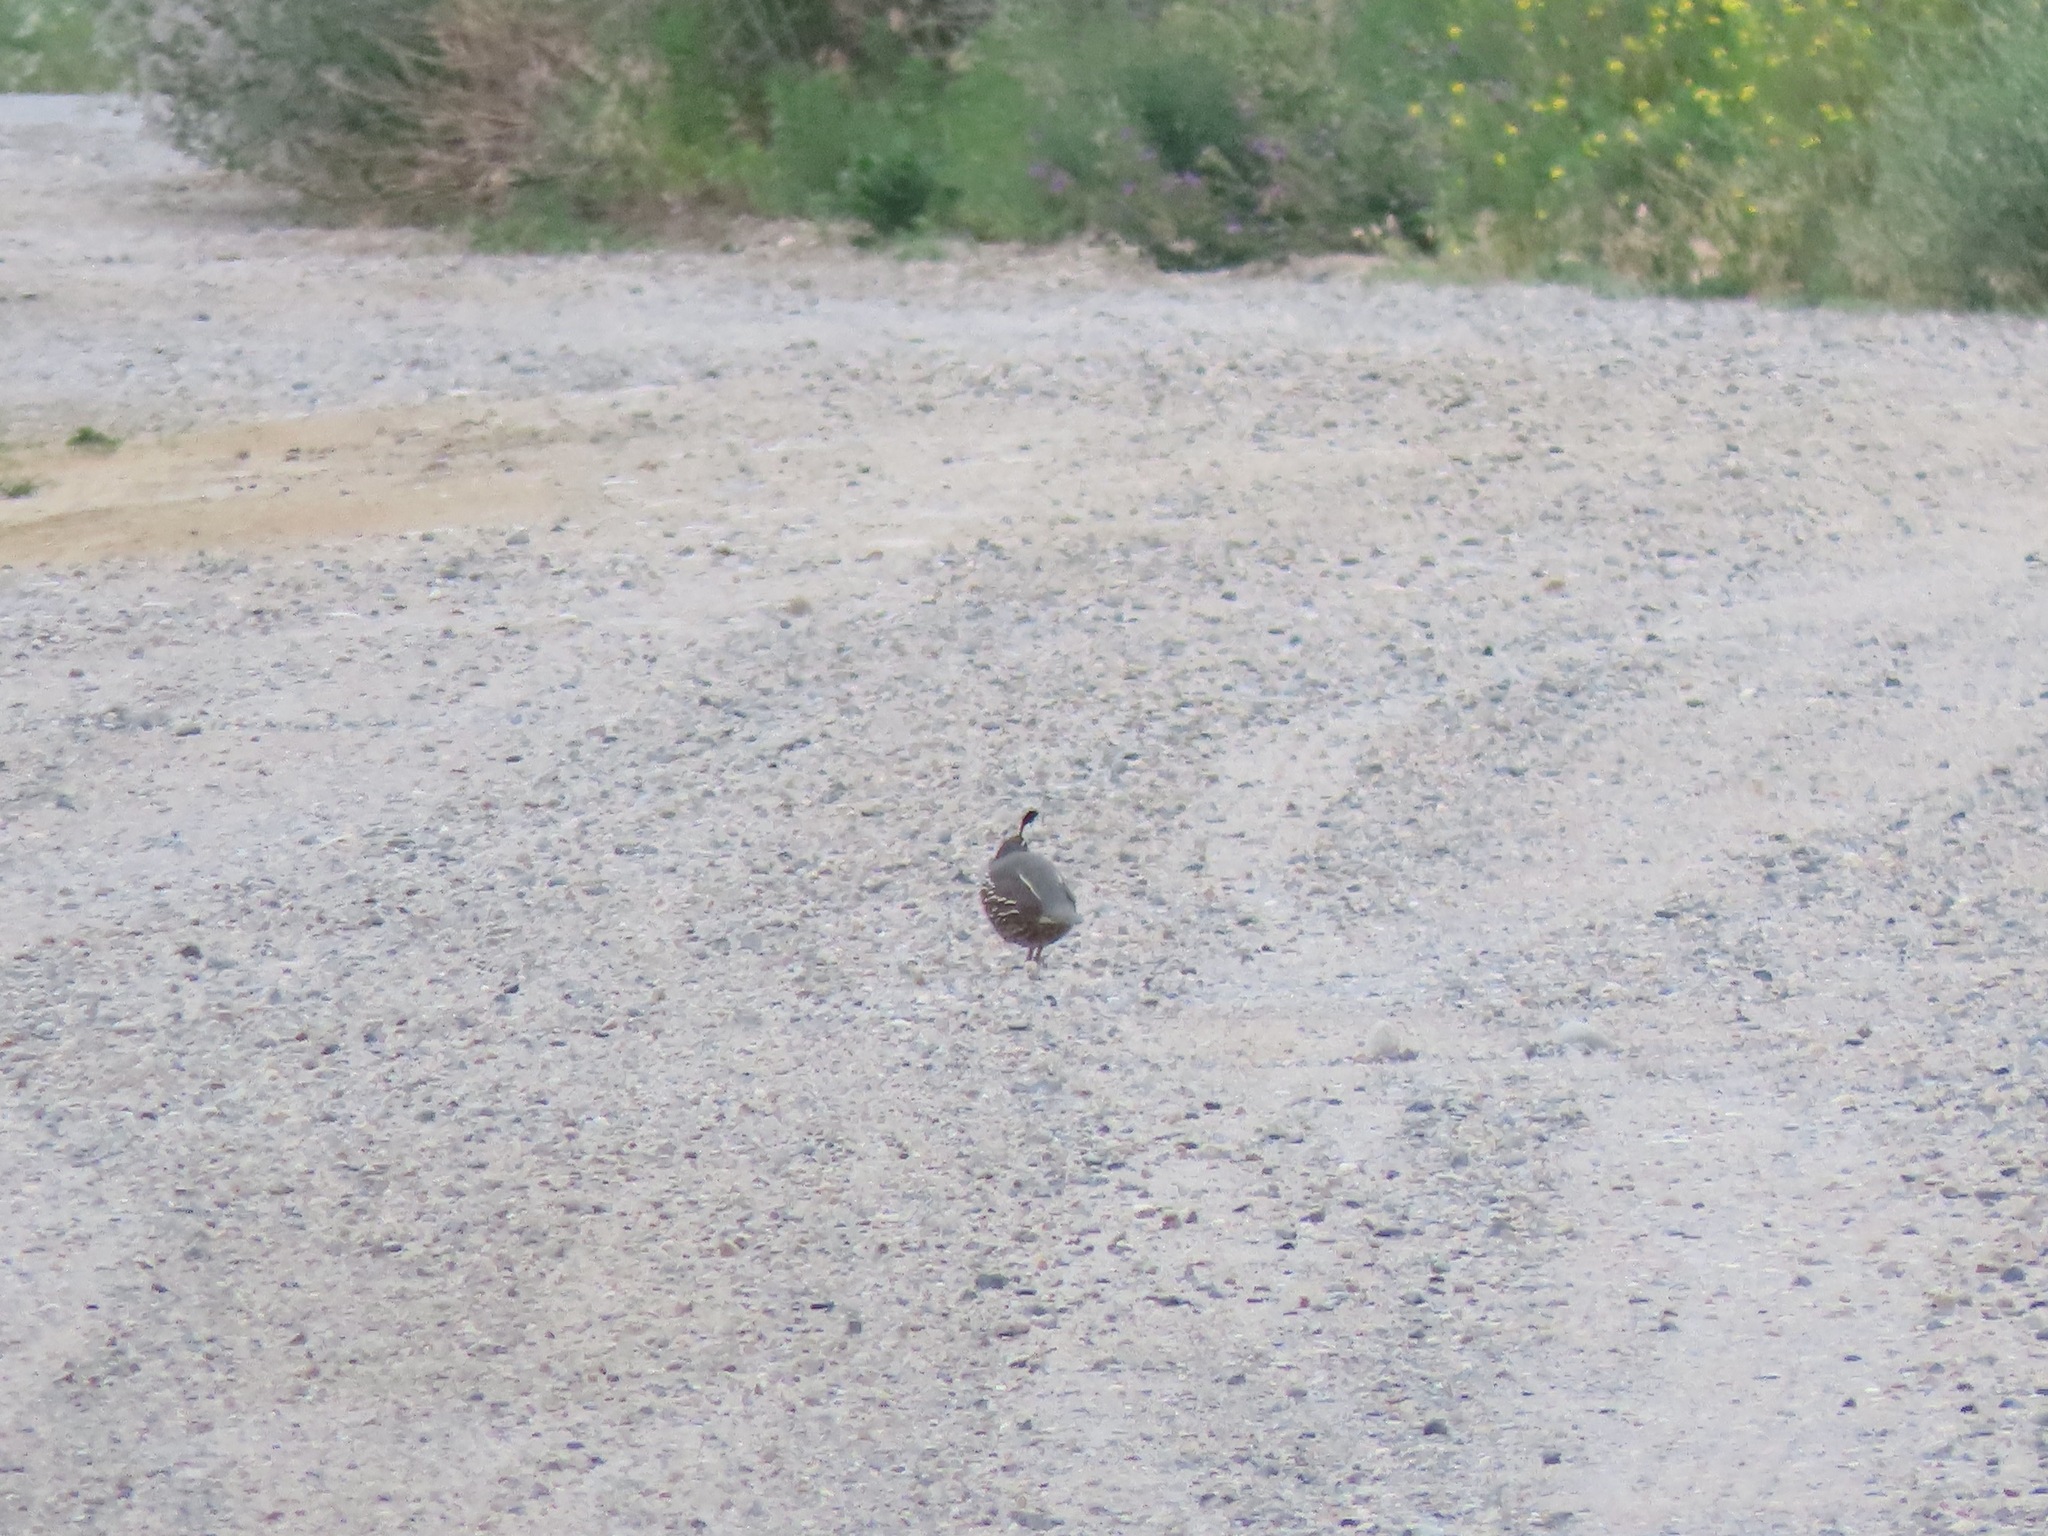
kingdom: Animalia
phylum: Chordata
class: Aves
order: Galliformes
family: Odontophoridae
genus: Callipepla
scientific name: Callipepla californica
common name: California quail
